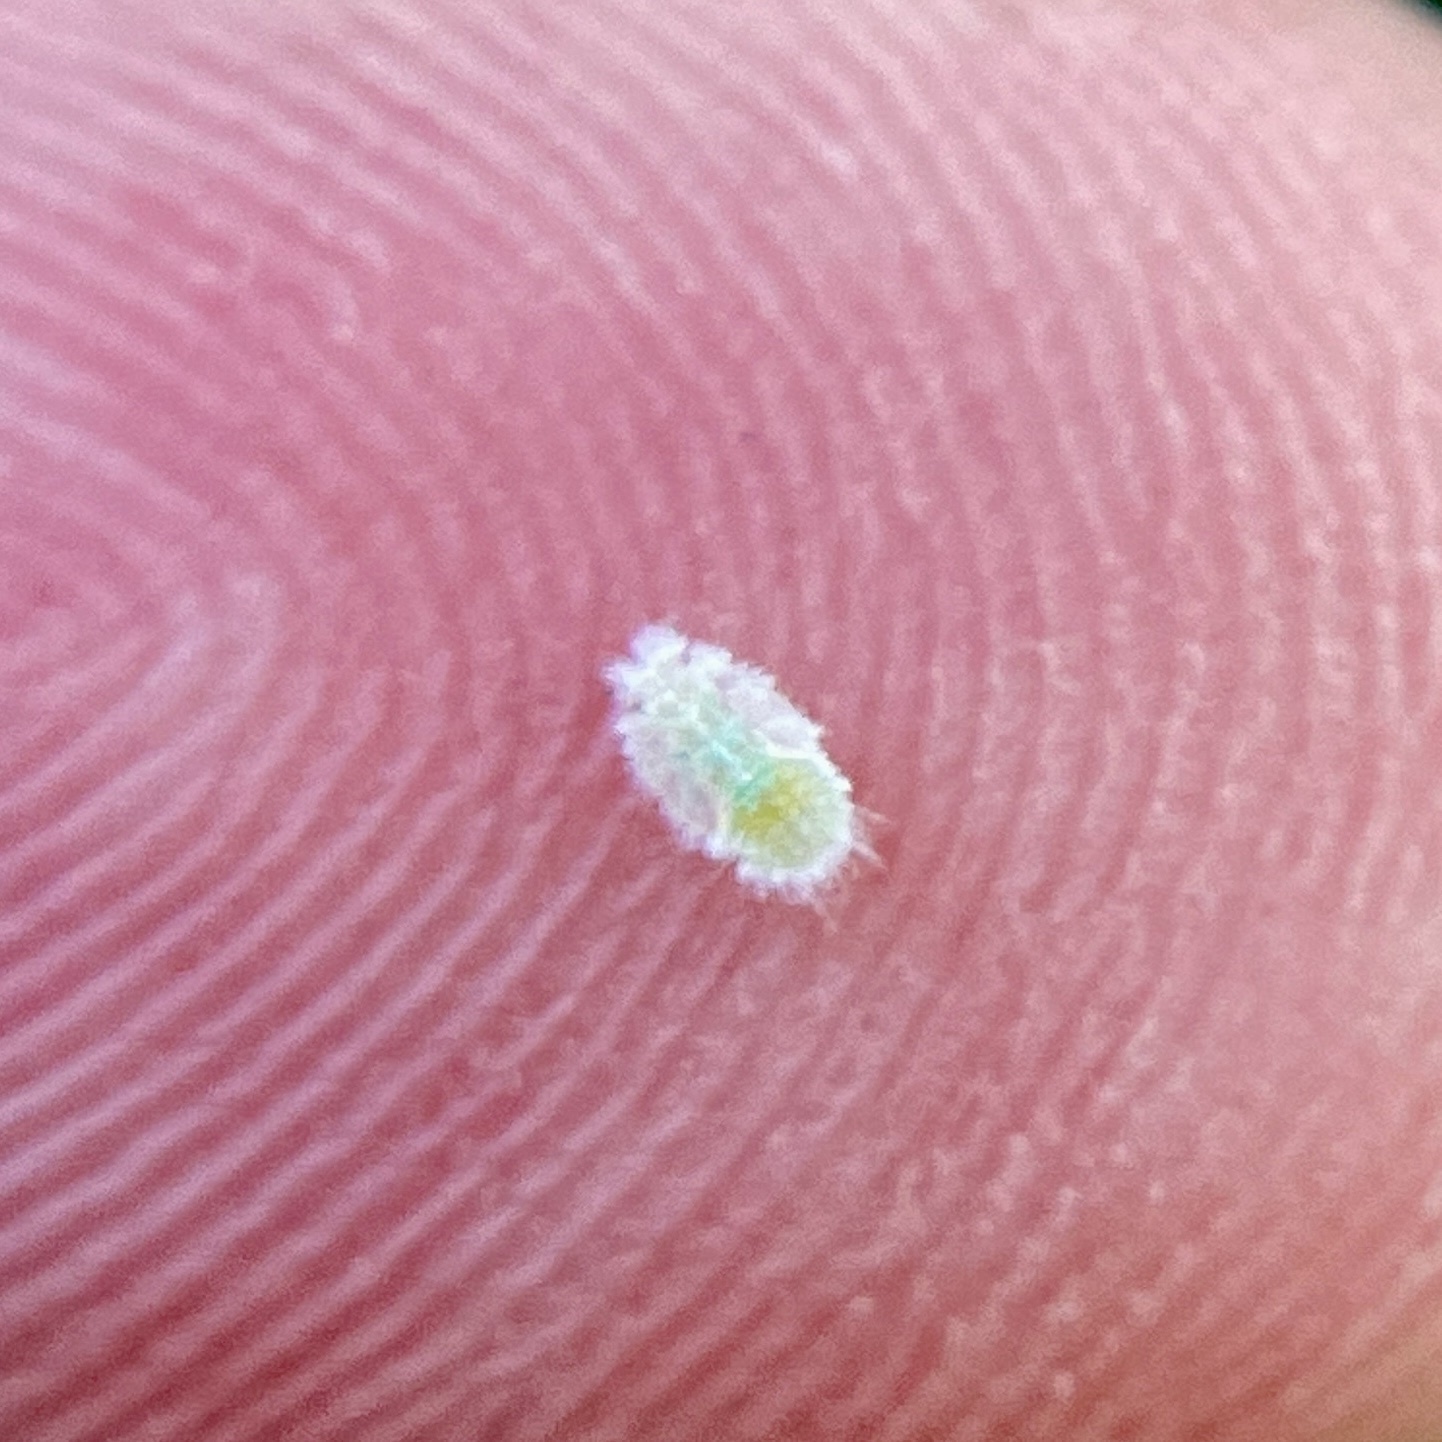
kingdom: Animalia
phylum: Arthropoda
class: Insecta
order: Hemiptera
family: Triozidae
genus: Baeoalitriozus
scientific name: Baeoalitriozus diospyri
